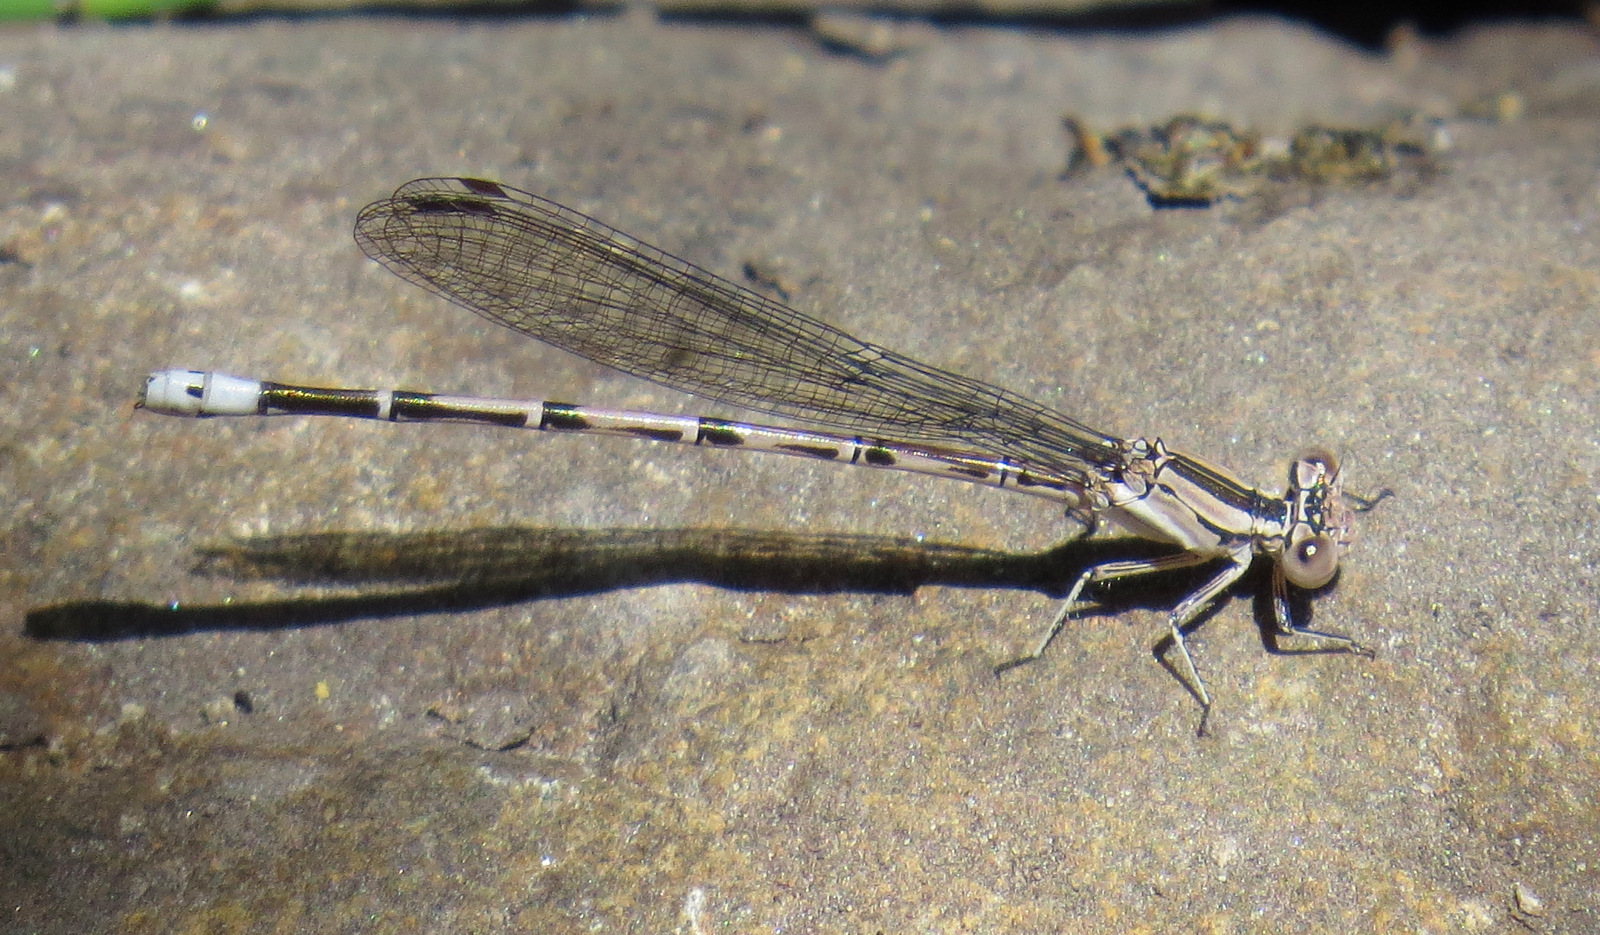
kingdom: Animalia
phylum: Arthropoda
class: Insecta
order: Odonata
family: Coenagrionidae
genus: Argia
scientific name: Argia funebris
